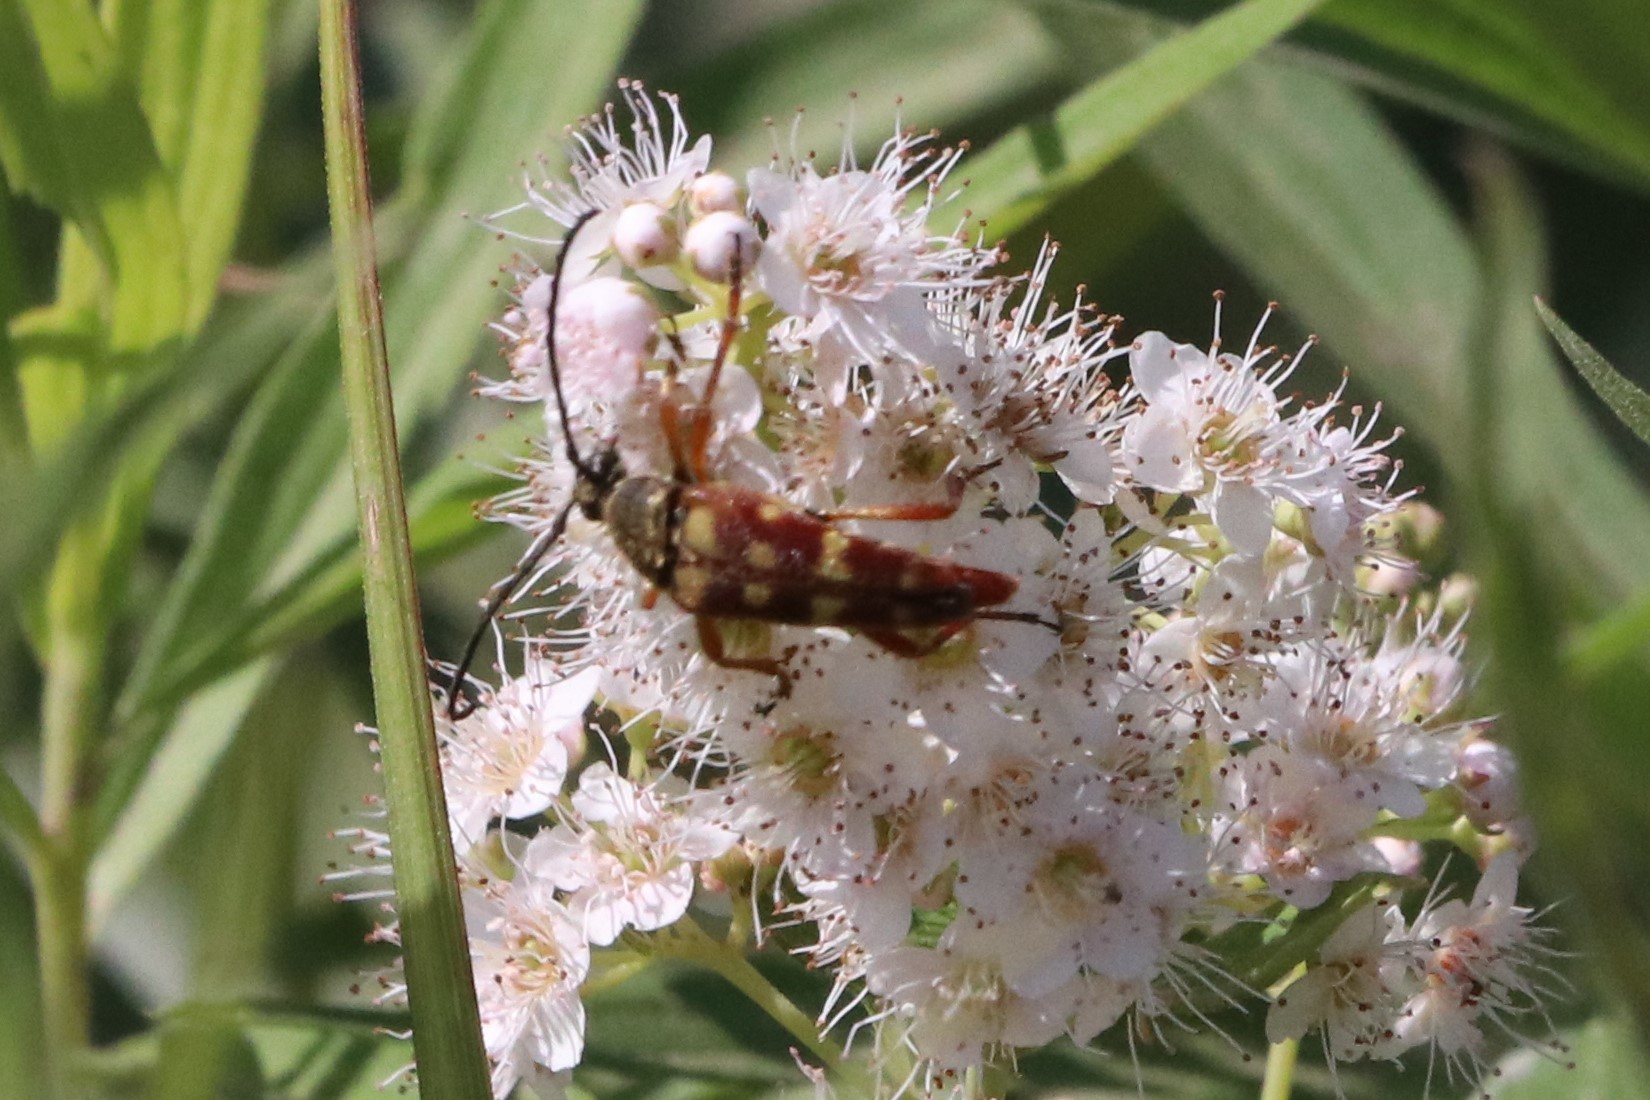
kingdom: Animalia
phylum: Arthropoda
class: Insecta
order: Coleoptera
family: Cerambycidae
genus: Typocerus
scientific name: Typocerus velutinus
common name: Banded longhorn beetle
